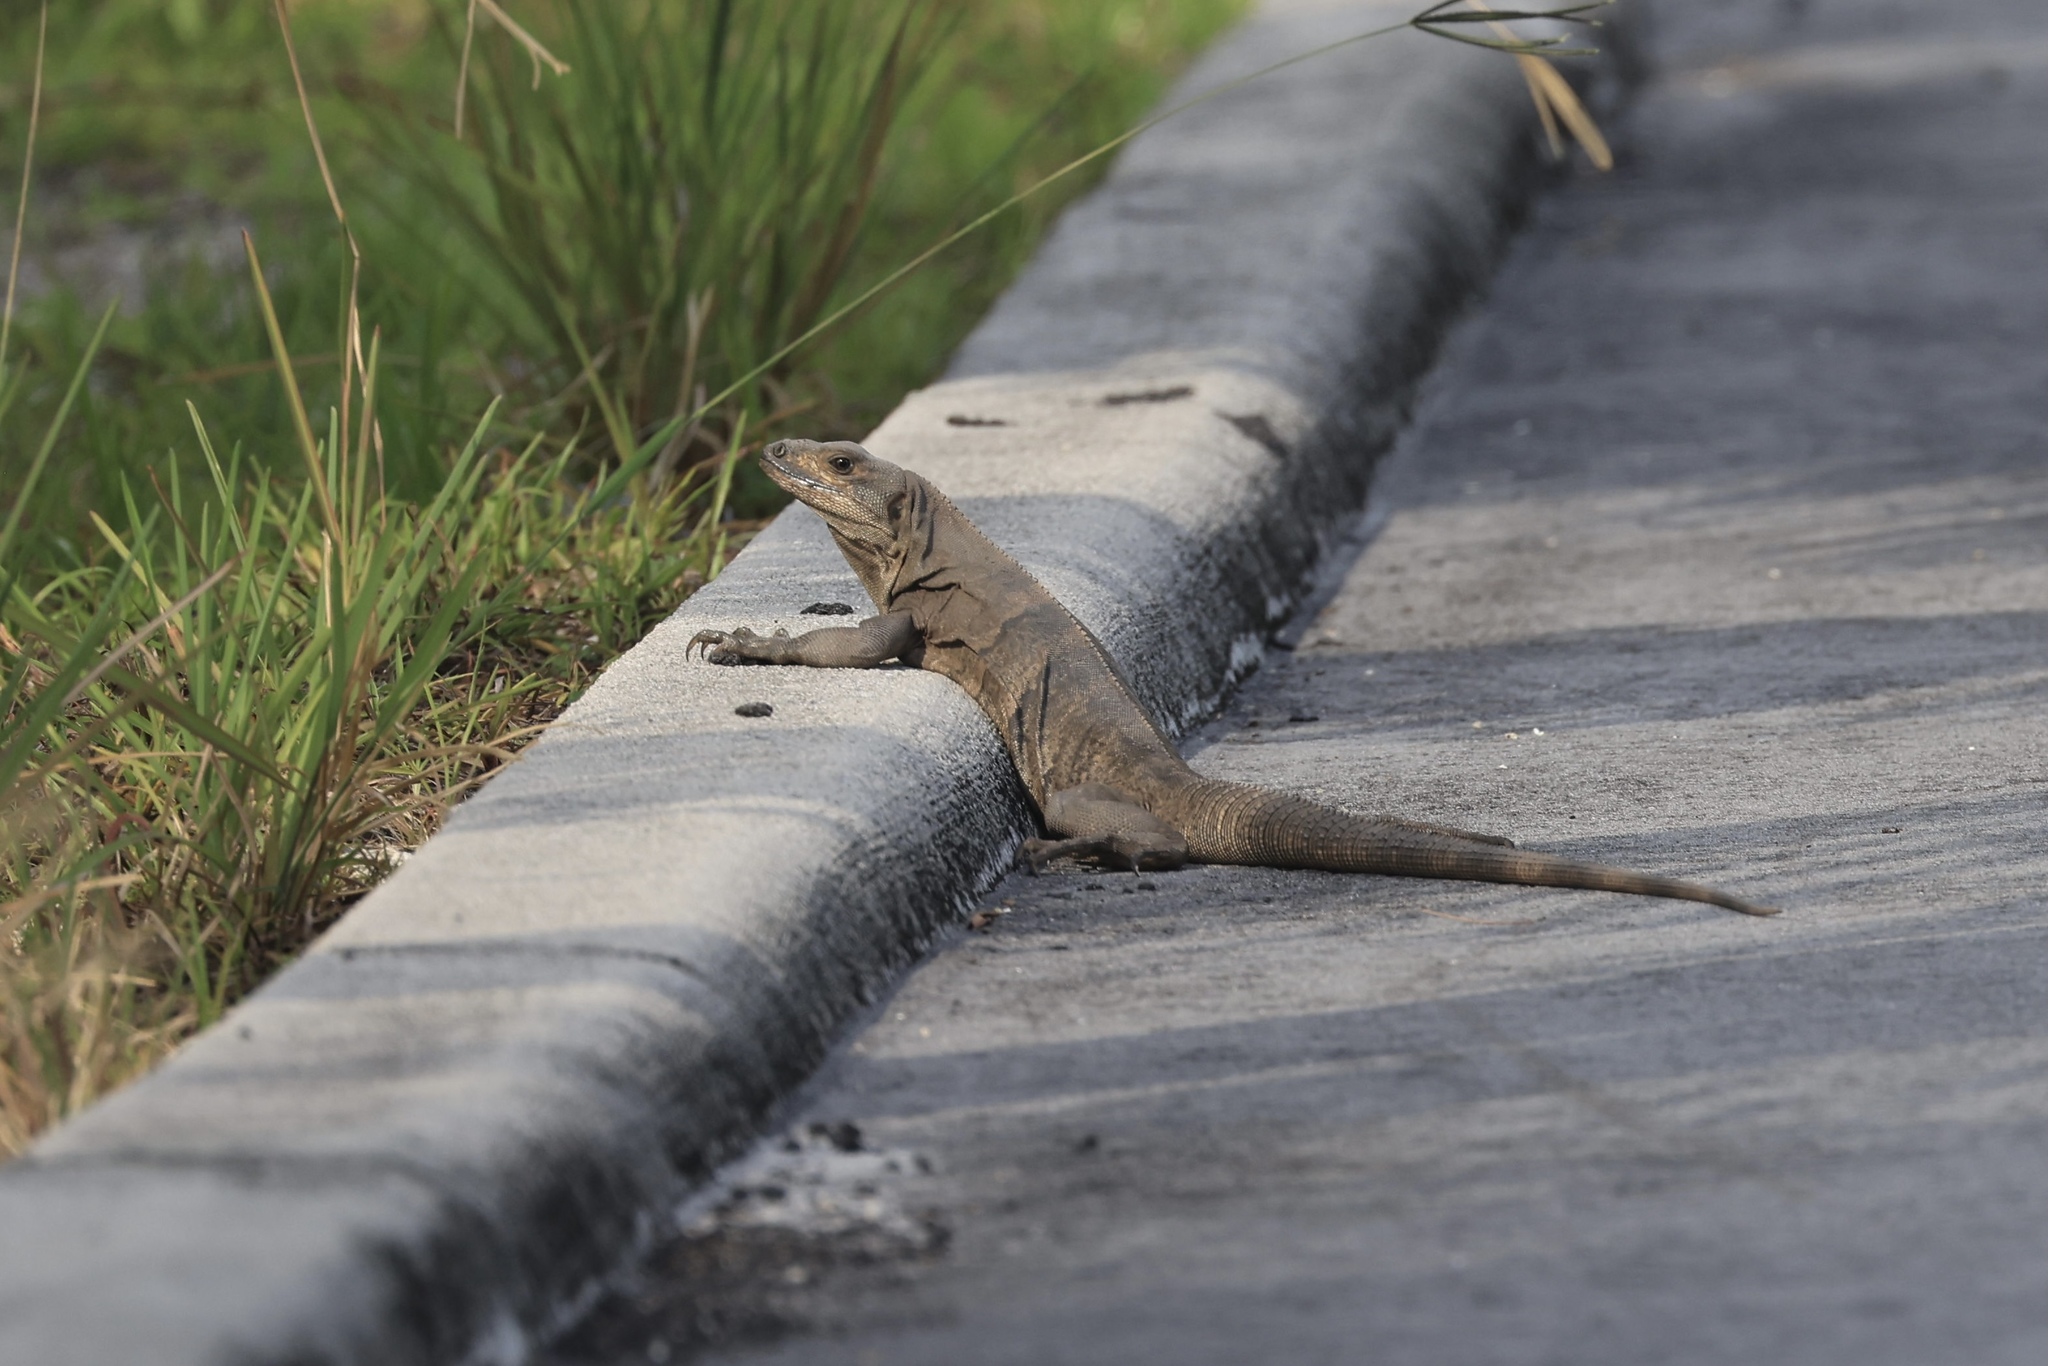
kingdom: Animalia
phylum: Chordata
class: Squamata
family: Iguanidae
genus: Ctenosaura
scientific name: Ctenosaura similis
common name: Black spiny-tailed iguana
